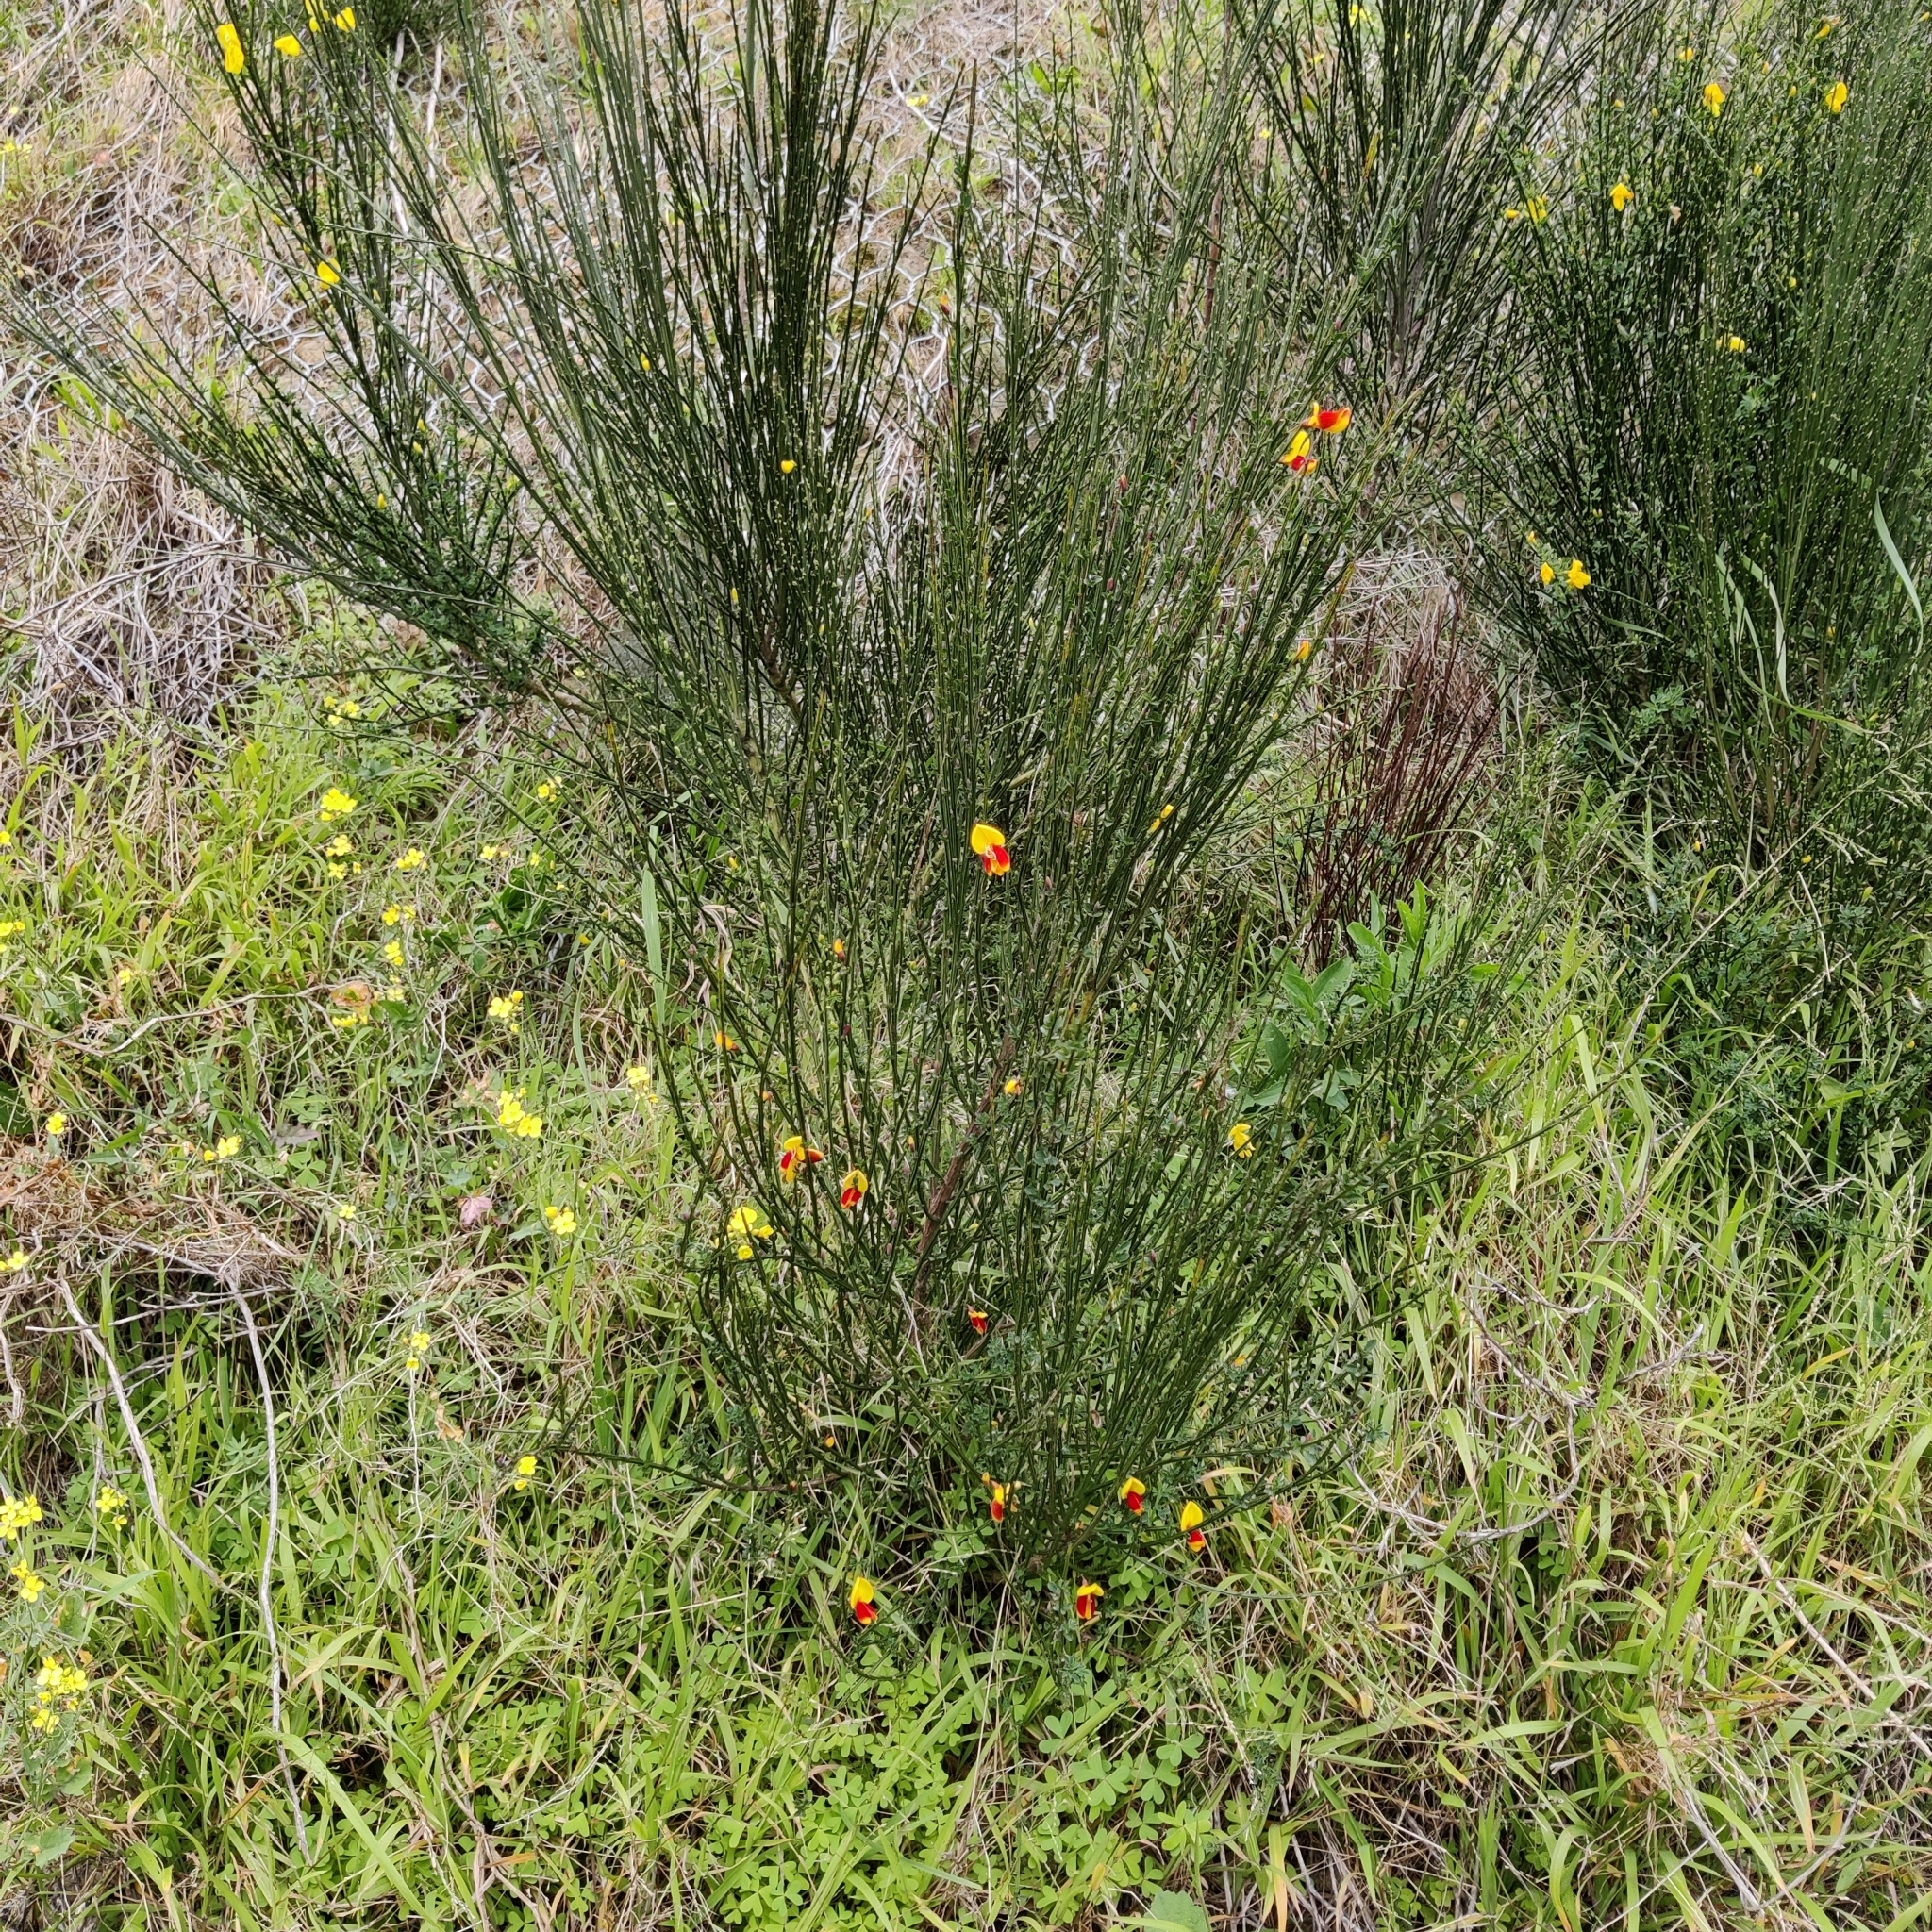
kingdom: Plantae
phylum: Tracheophyta
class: Magnoliopsida
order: Fabales
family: Fabaceae
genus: Cytisus
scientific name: Cytisus scoparius
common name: Scotch broom
